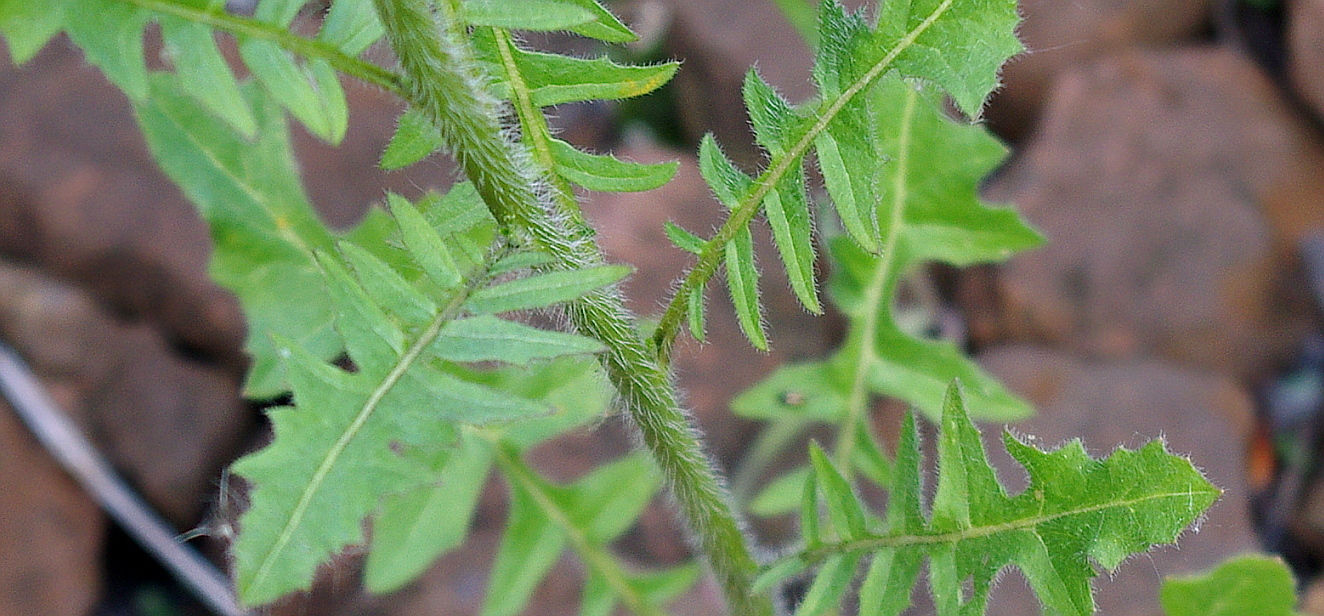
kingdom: Plantae
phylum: Tracheophyta
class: Magnoliopsida
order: Brassicales
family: Brassicaceae
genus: Sisymbrium
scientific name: Sisymbrium loeselii
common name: False london-rocket
